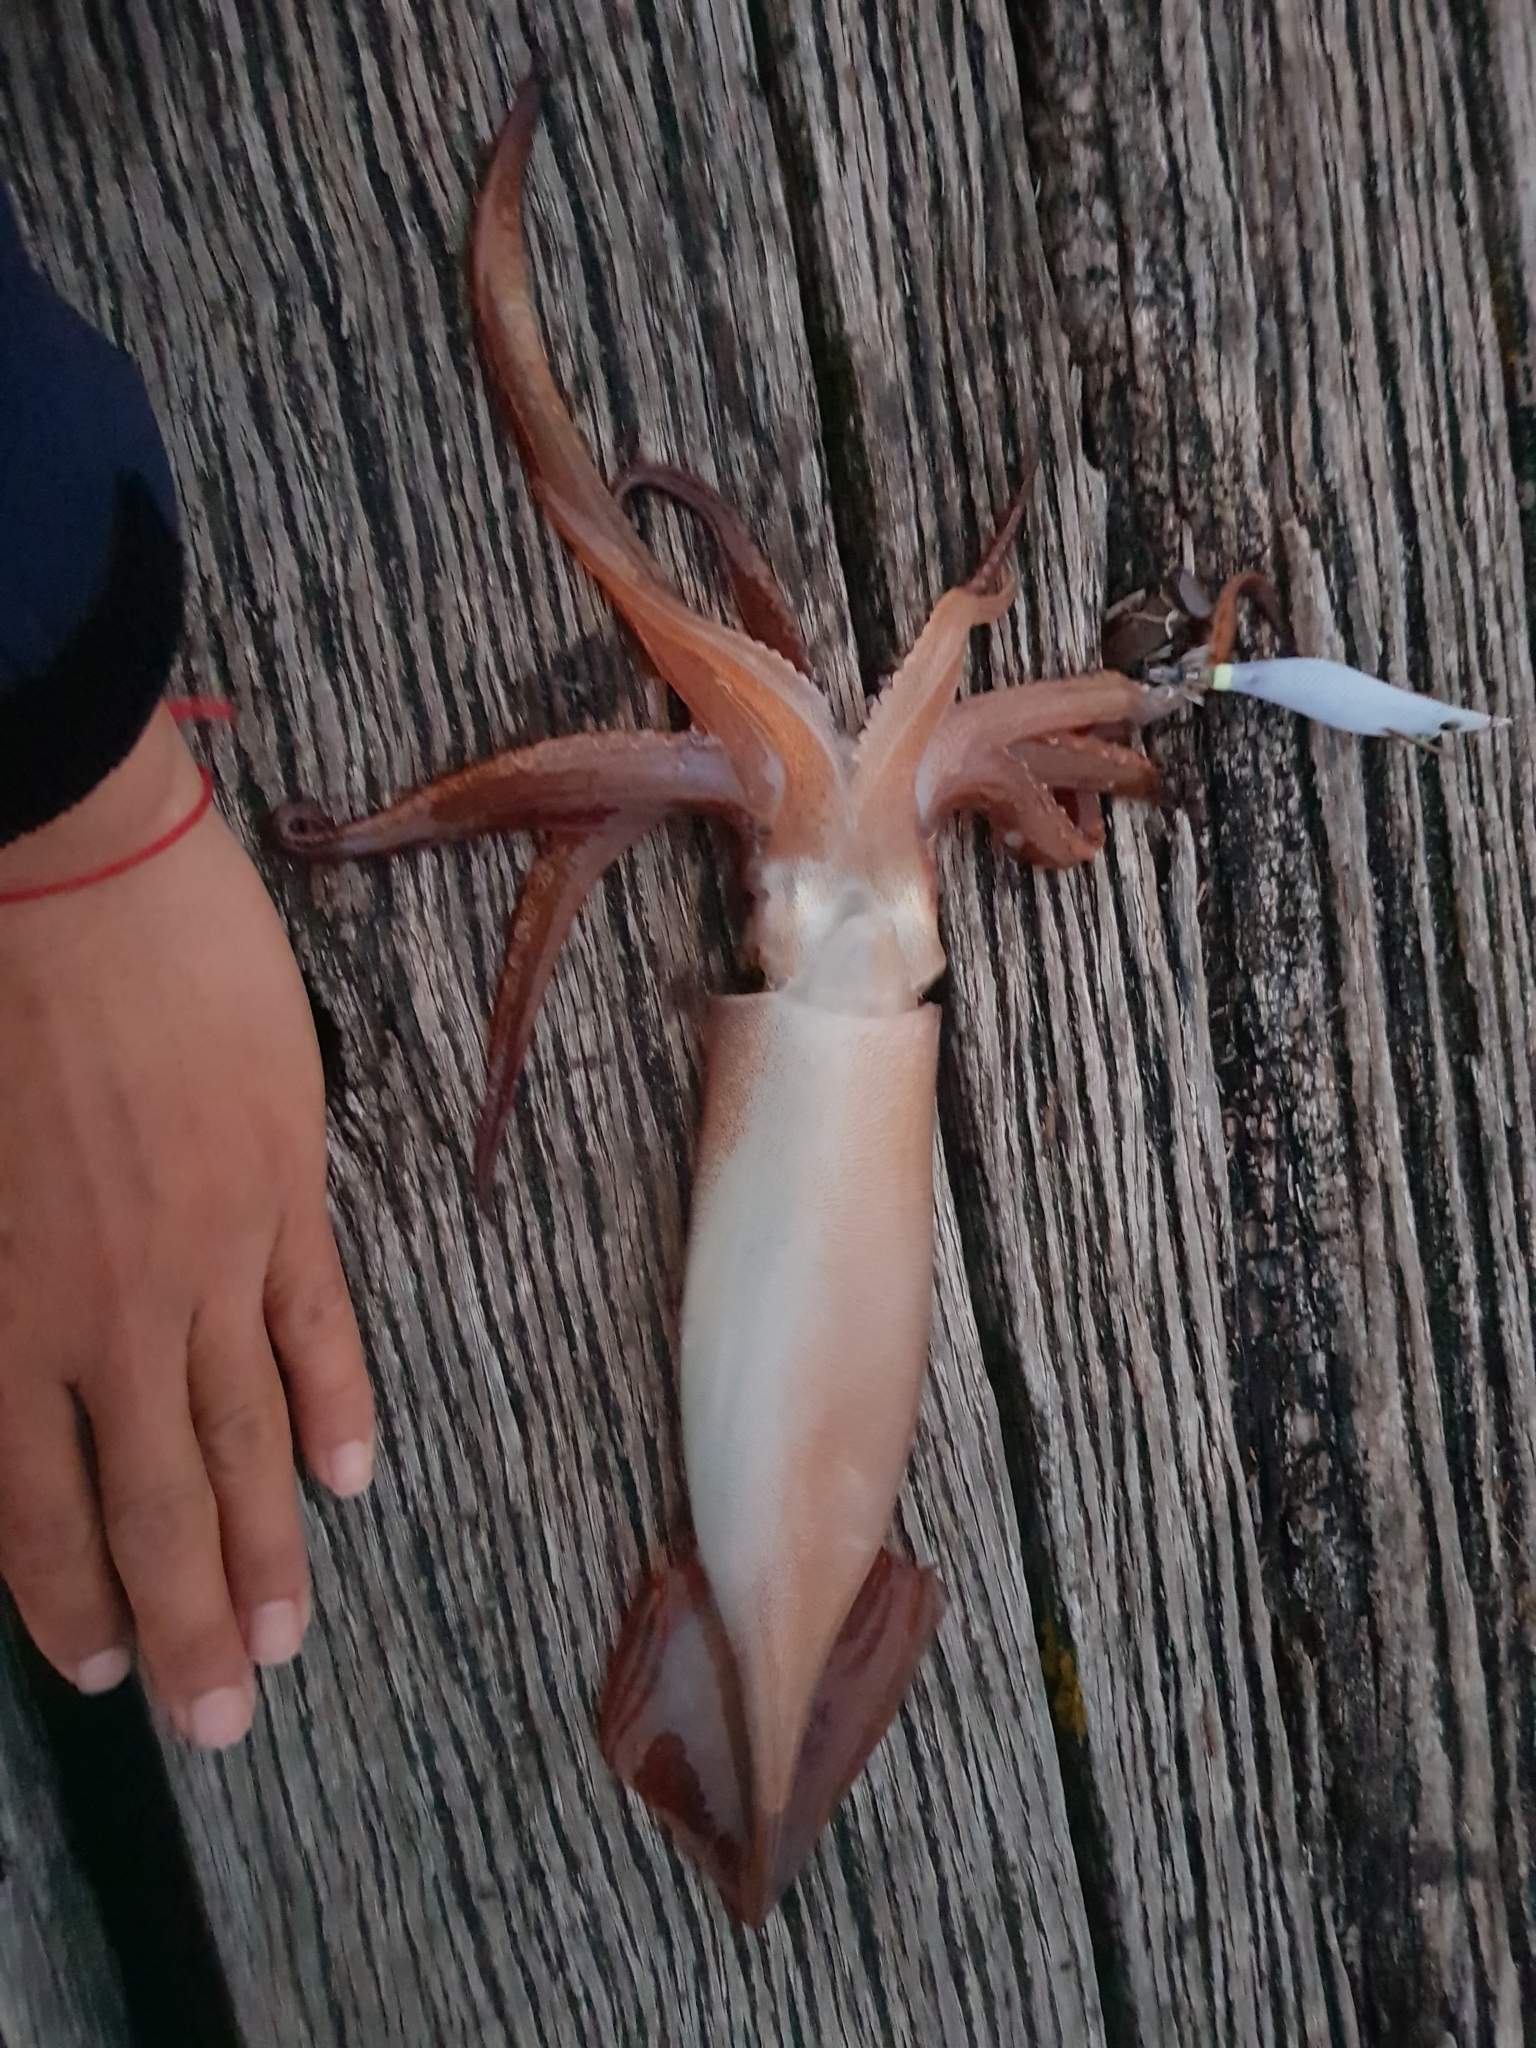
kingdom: Animalia
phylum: Mollusca
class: Cephalopoda
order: Oegopsida
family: Ommastrephidae
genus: Nototodarus
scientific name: Nototodarus gouldi
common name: Gould's flying squid
